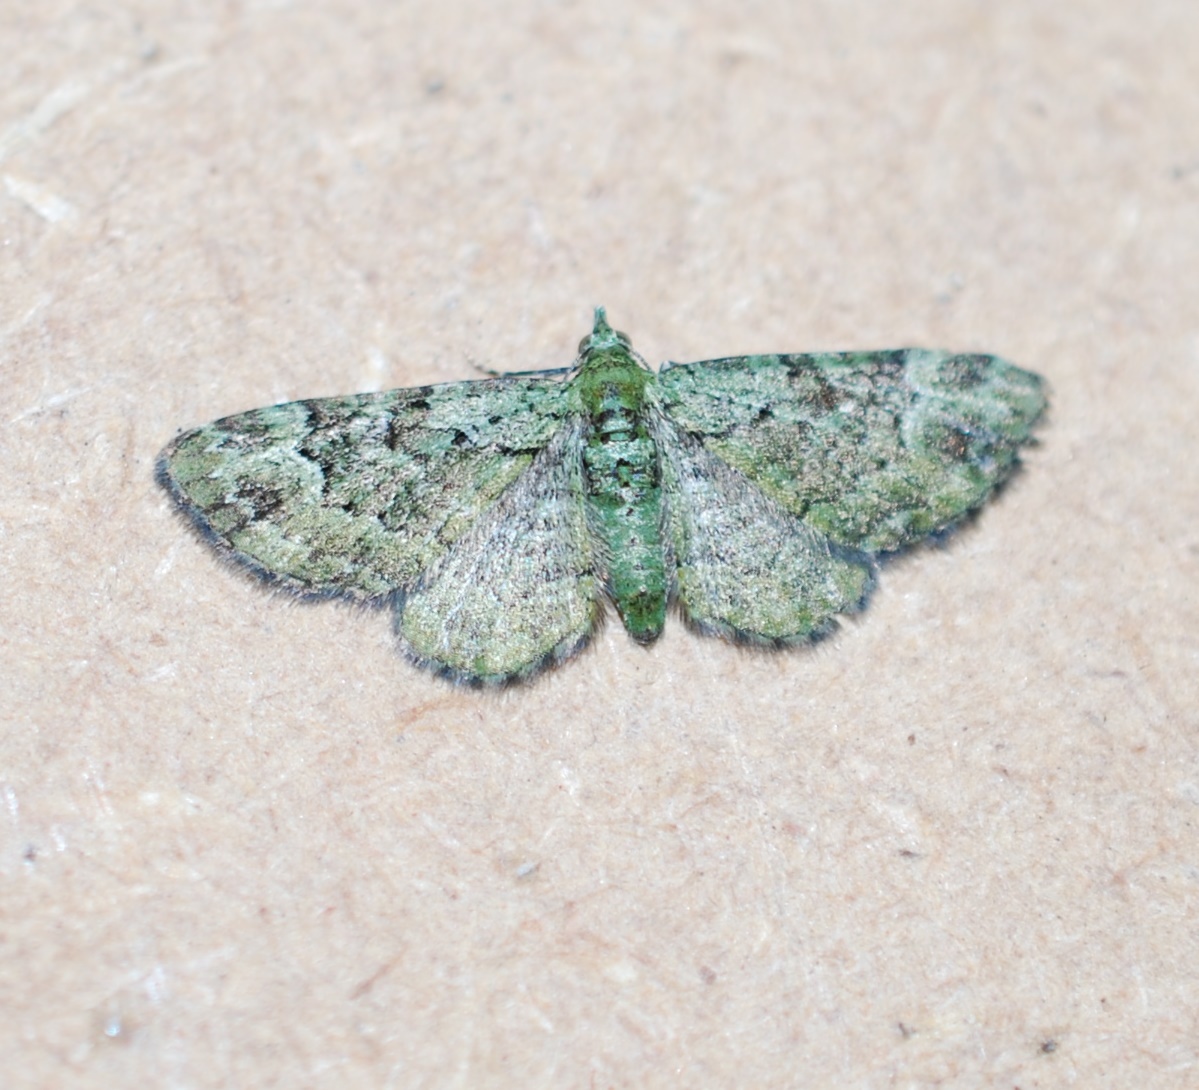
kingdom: Animalia
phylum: Arthropoda
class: Insecta
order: Lepidoptera
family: Geometridae
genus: Pasiphila
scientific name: Pasiphila rectangulata
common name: Green pug
